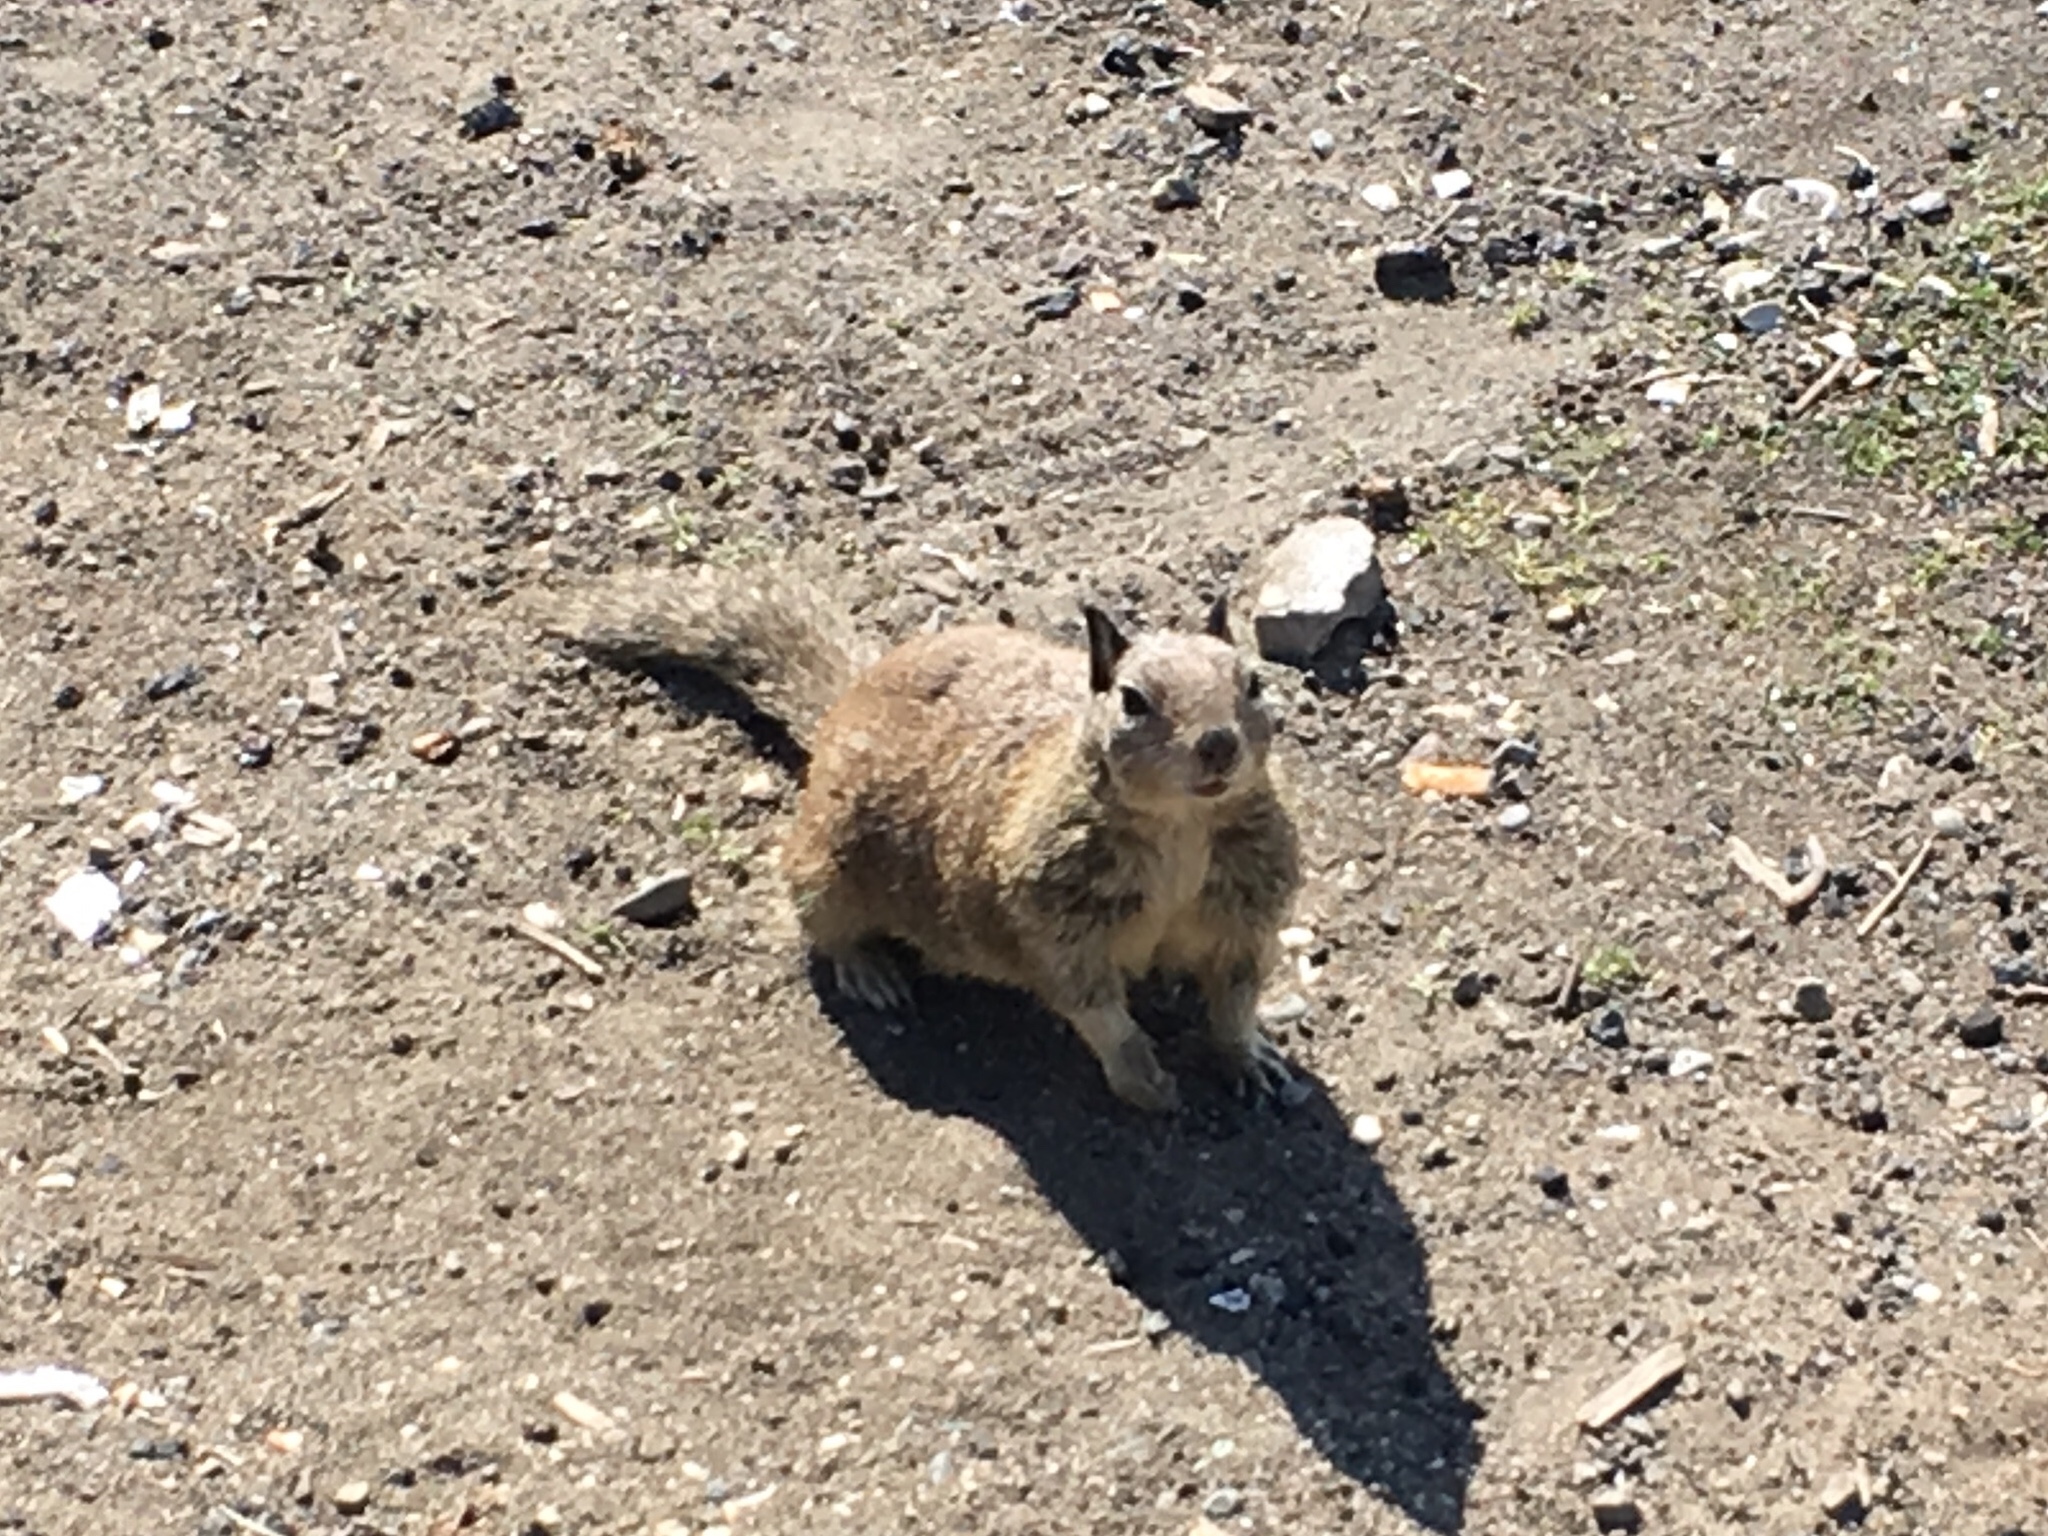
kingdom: Animalia
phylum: Chordata
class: Mammalia
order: Rodentia
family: Sciuridae
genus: Otospermophilus
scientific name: Otospermophilus beecheyi
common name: California ground squirrel
